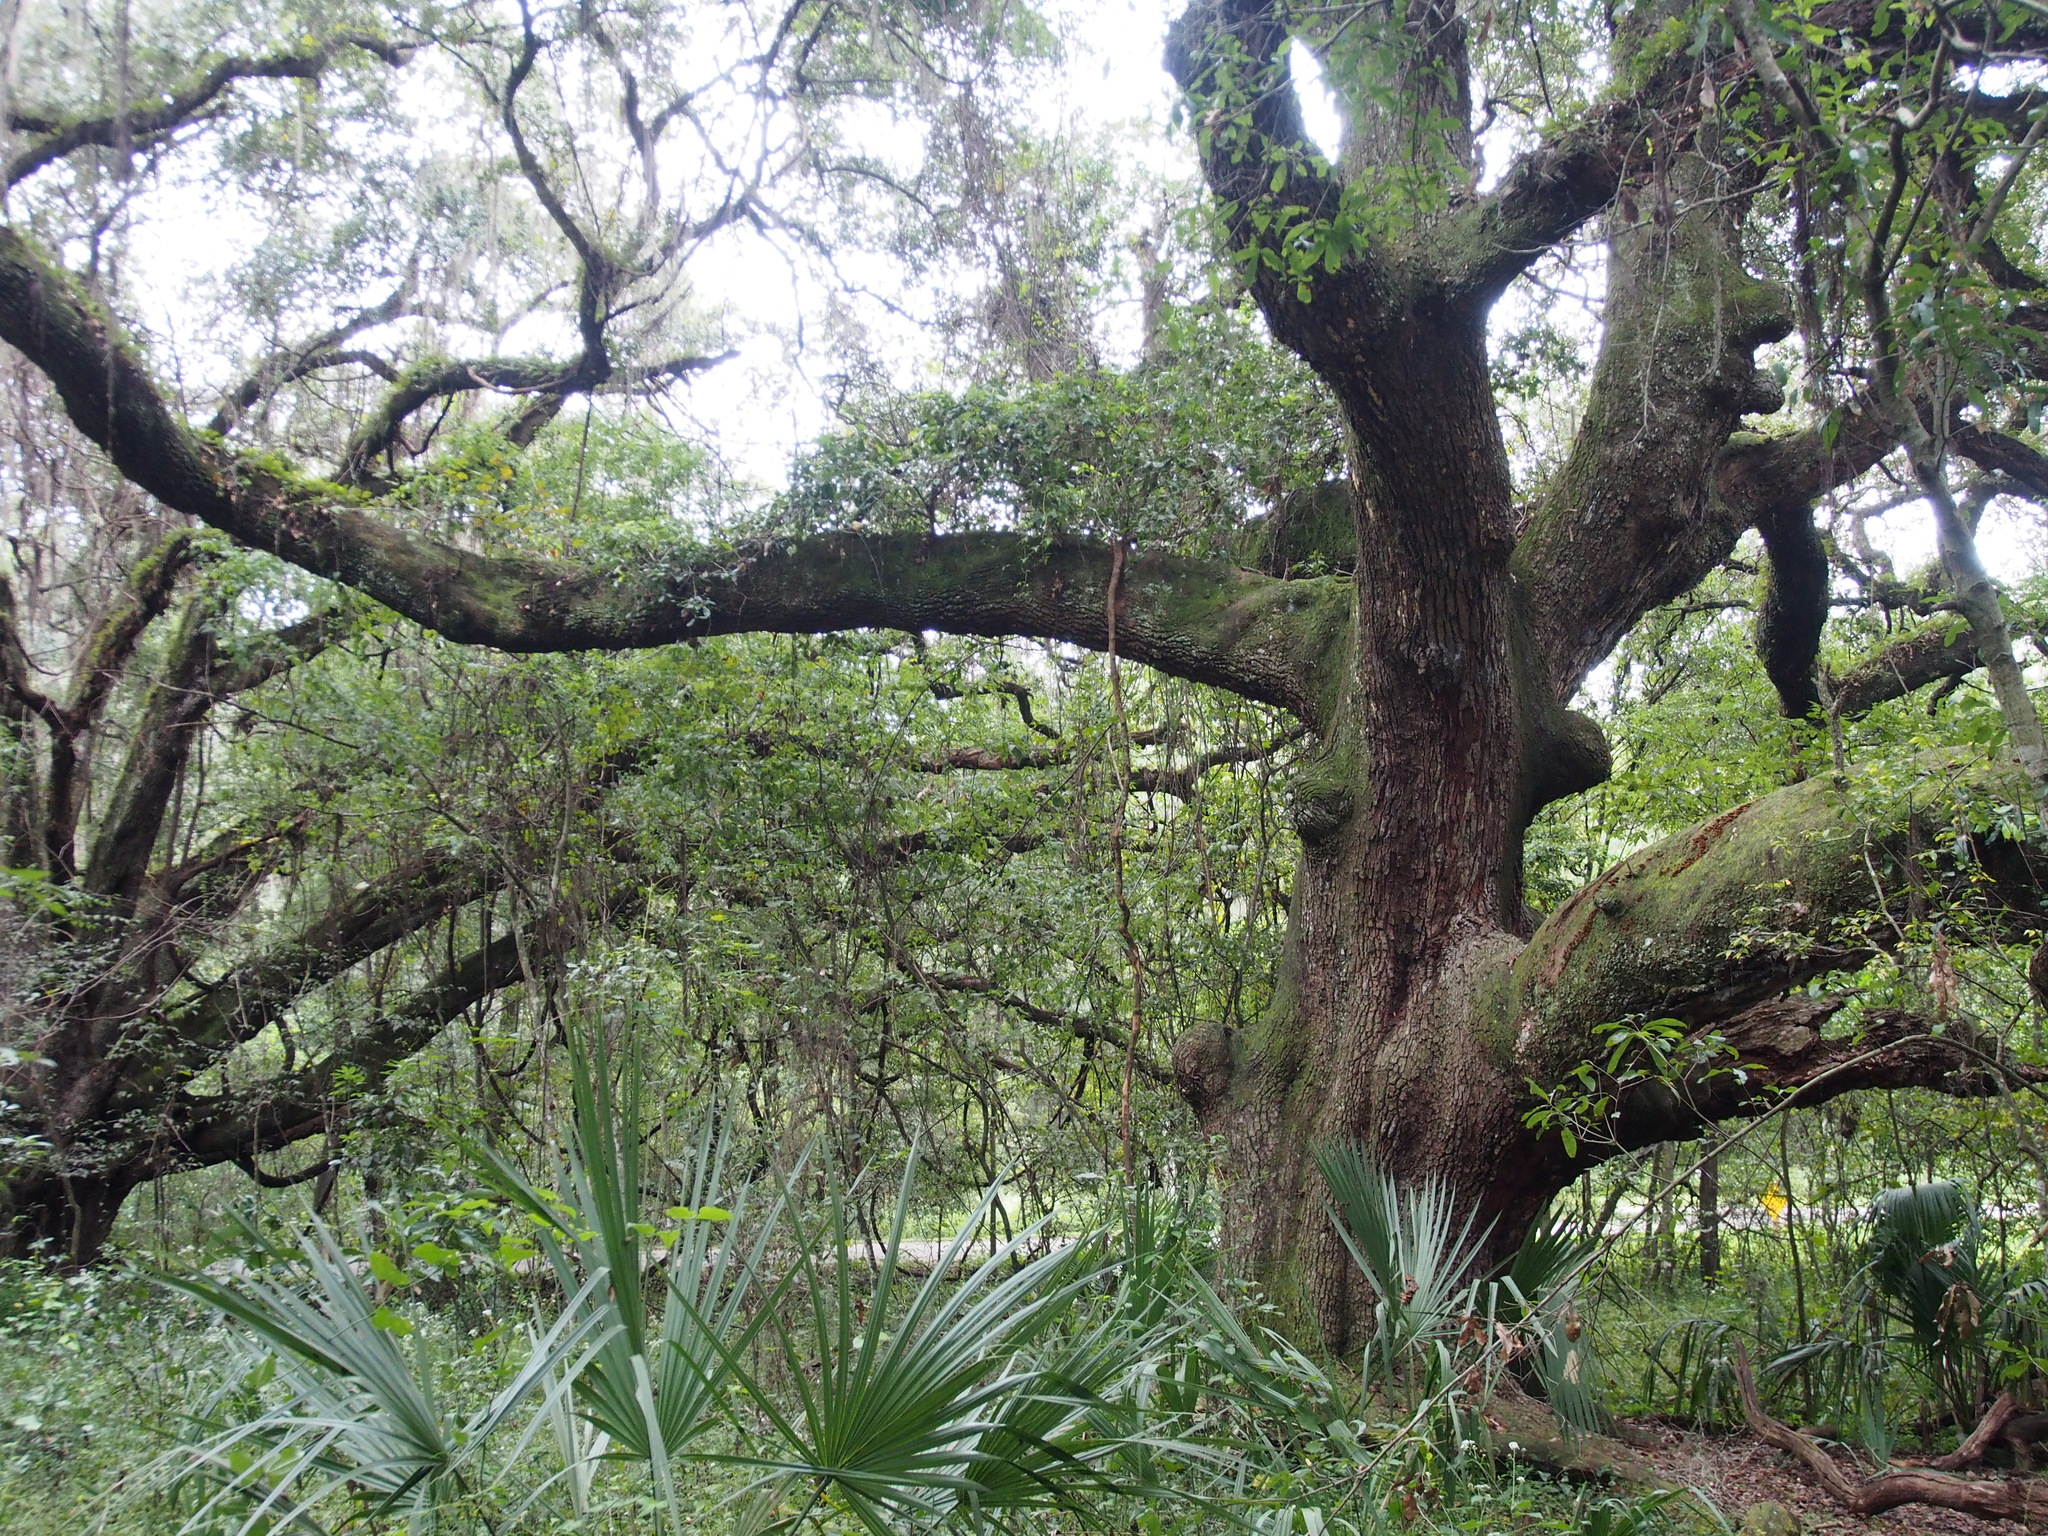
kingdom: Animalia
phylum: Chordata
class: Squamata
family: Colubridae
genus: Pantherophis
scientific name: Pantherophis alleghaniensis
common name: Eastern rat snake
